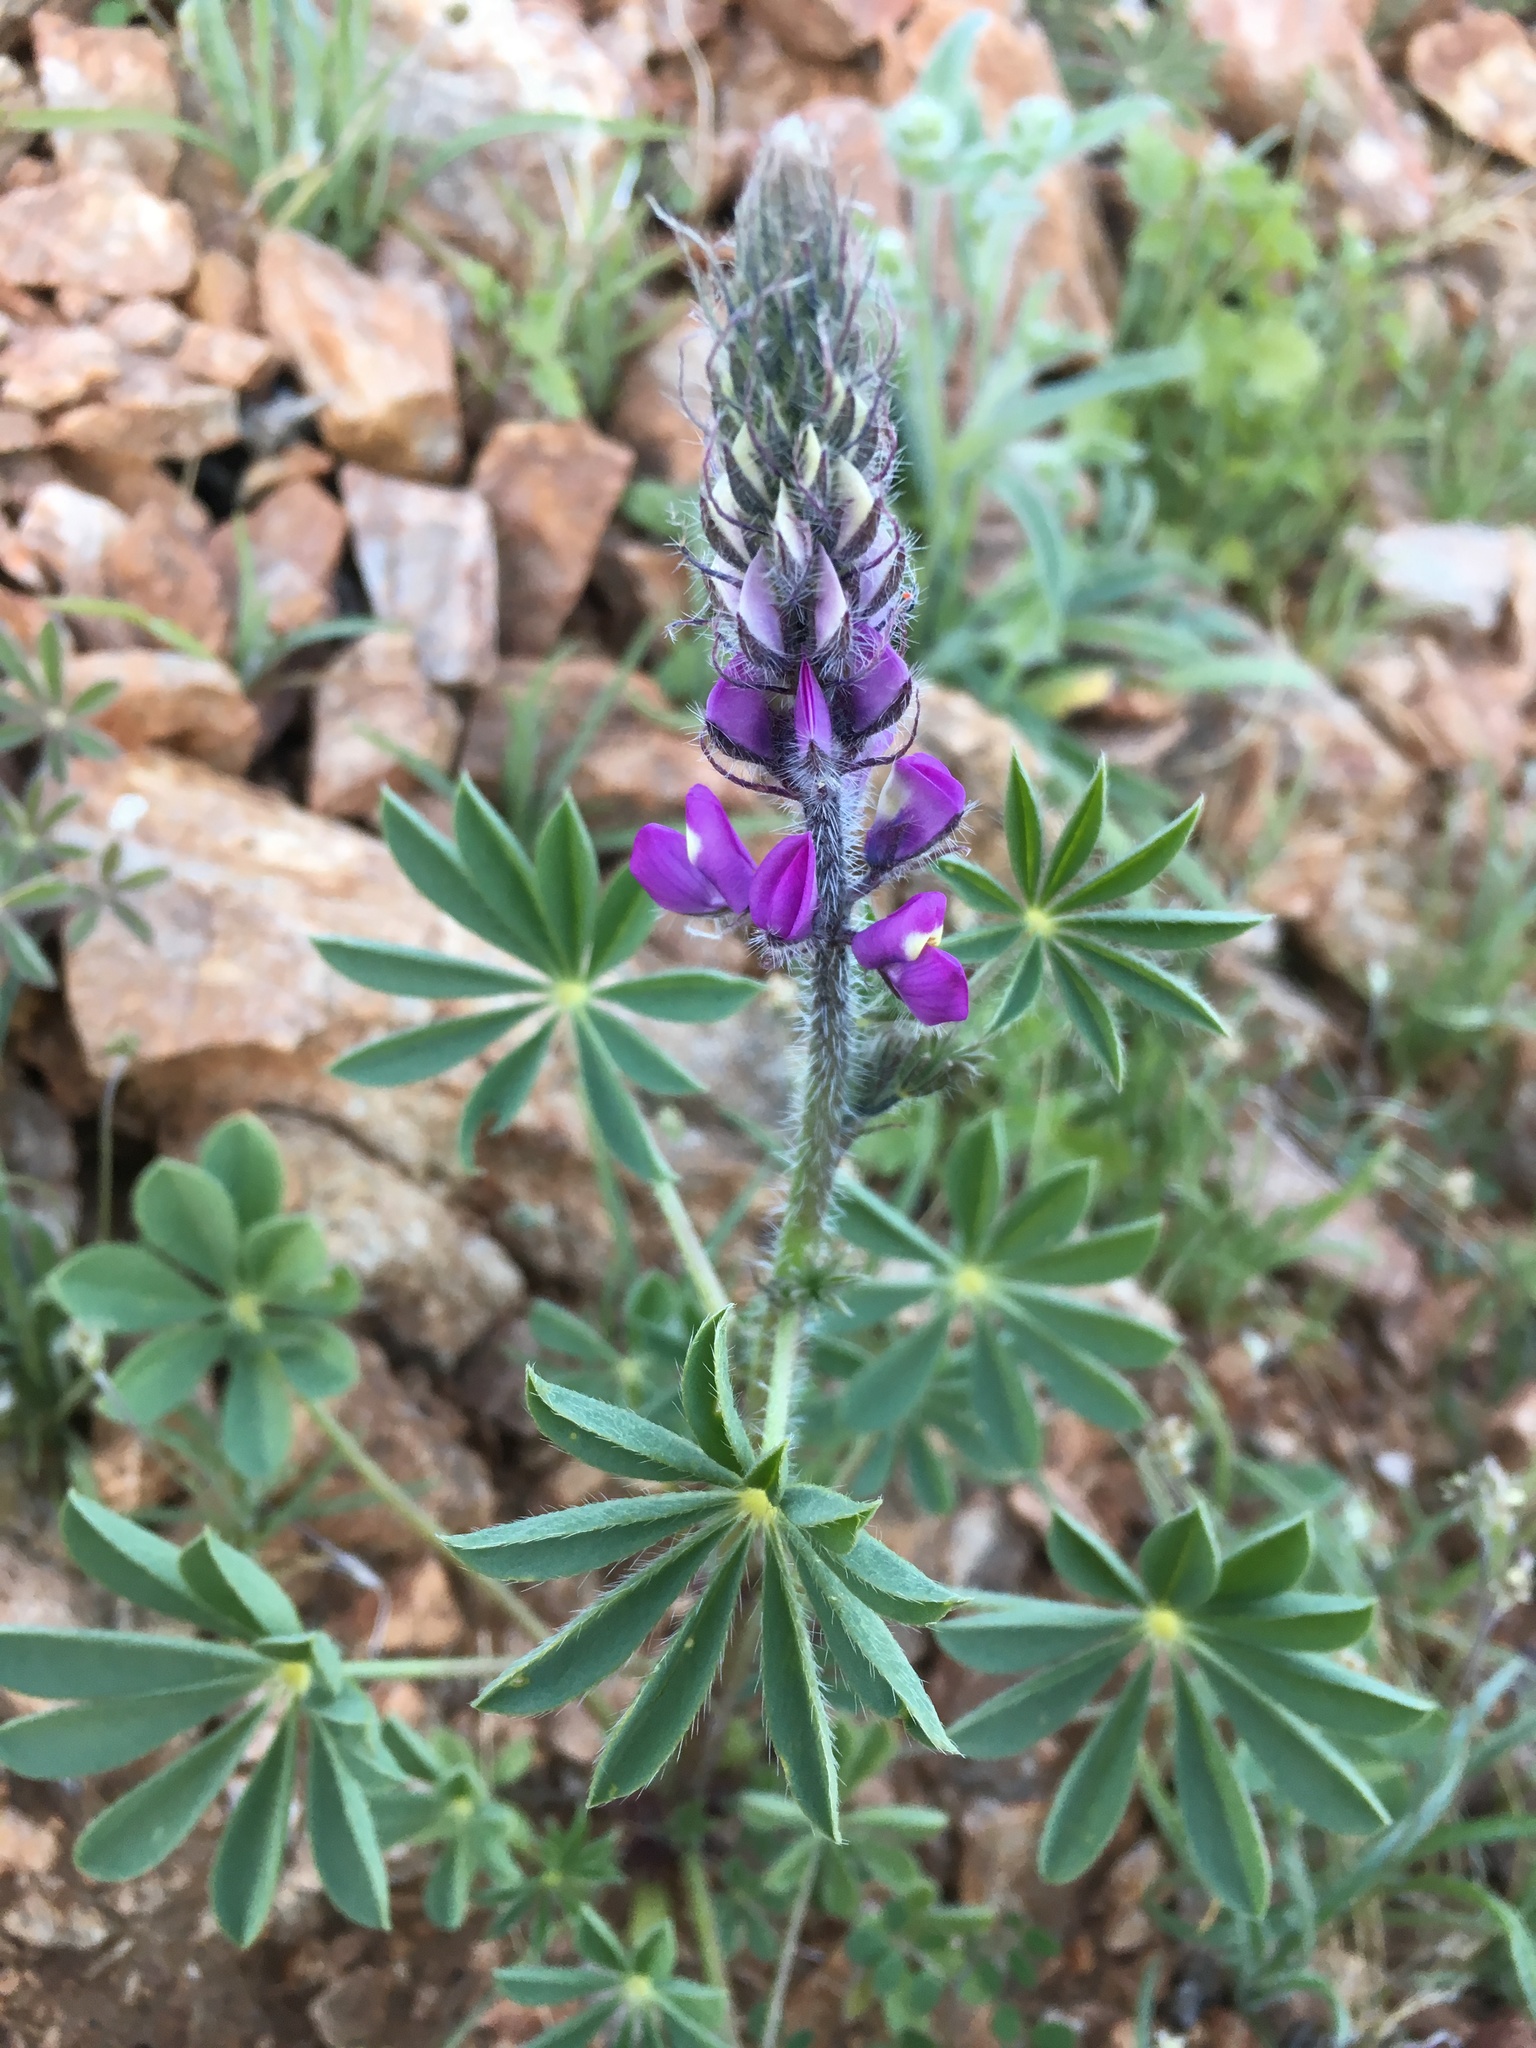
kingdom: Plantae
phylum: Tracheophyta
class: Magnoliopsida
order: Fabales
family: Fabaceae
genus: Lupinus
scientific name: Lupinus arizonicus
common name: Arizona lupine
